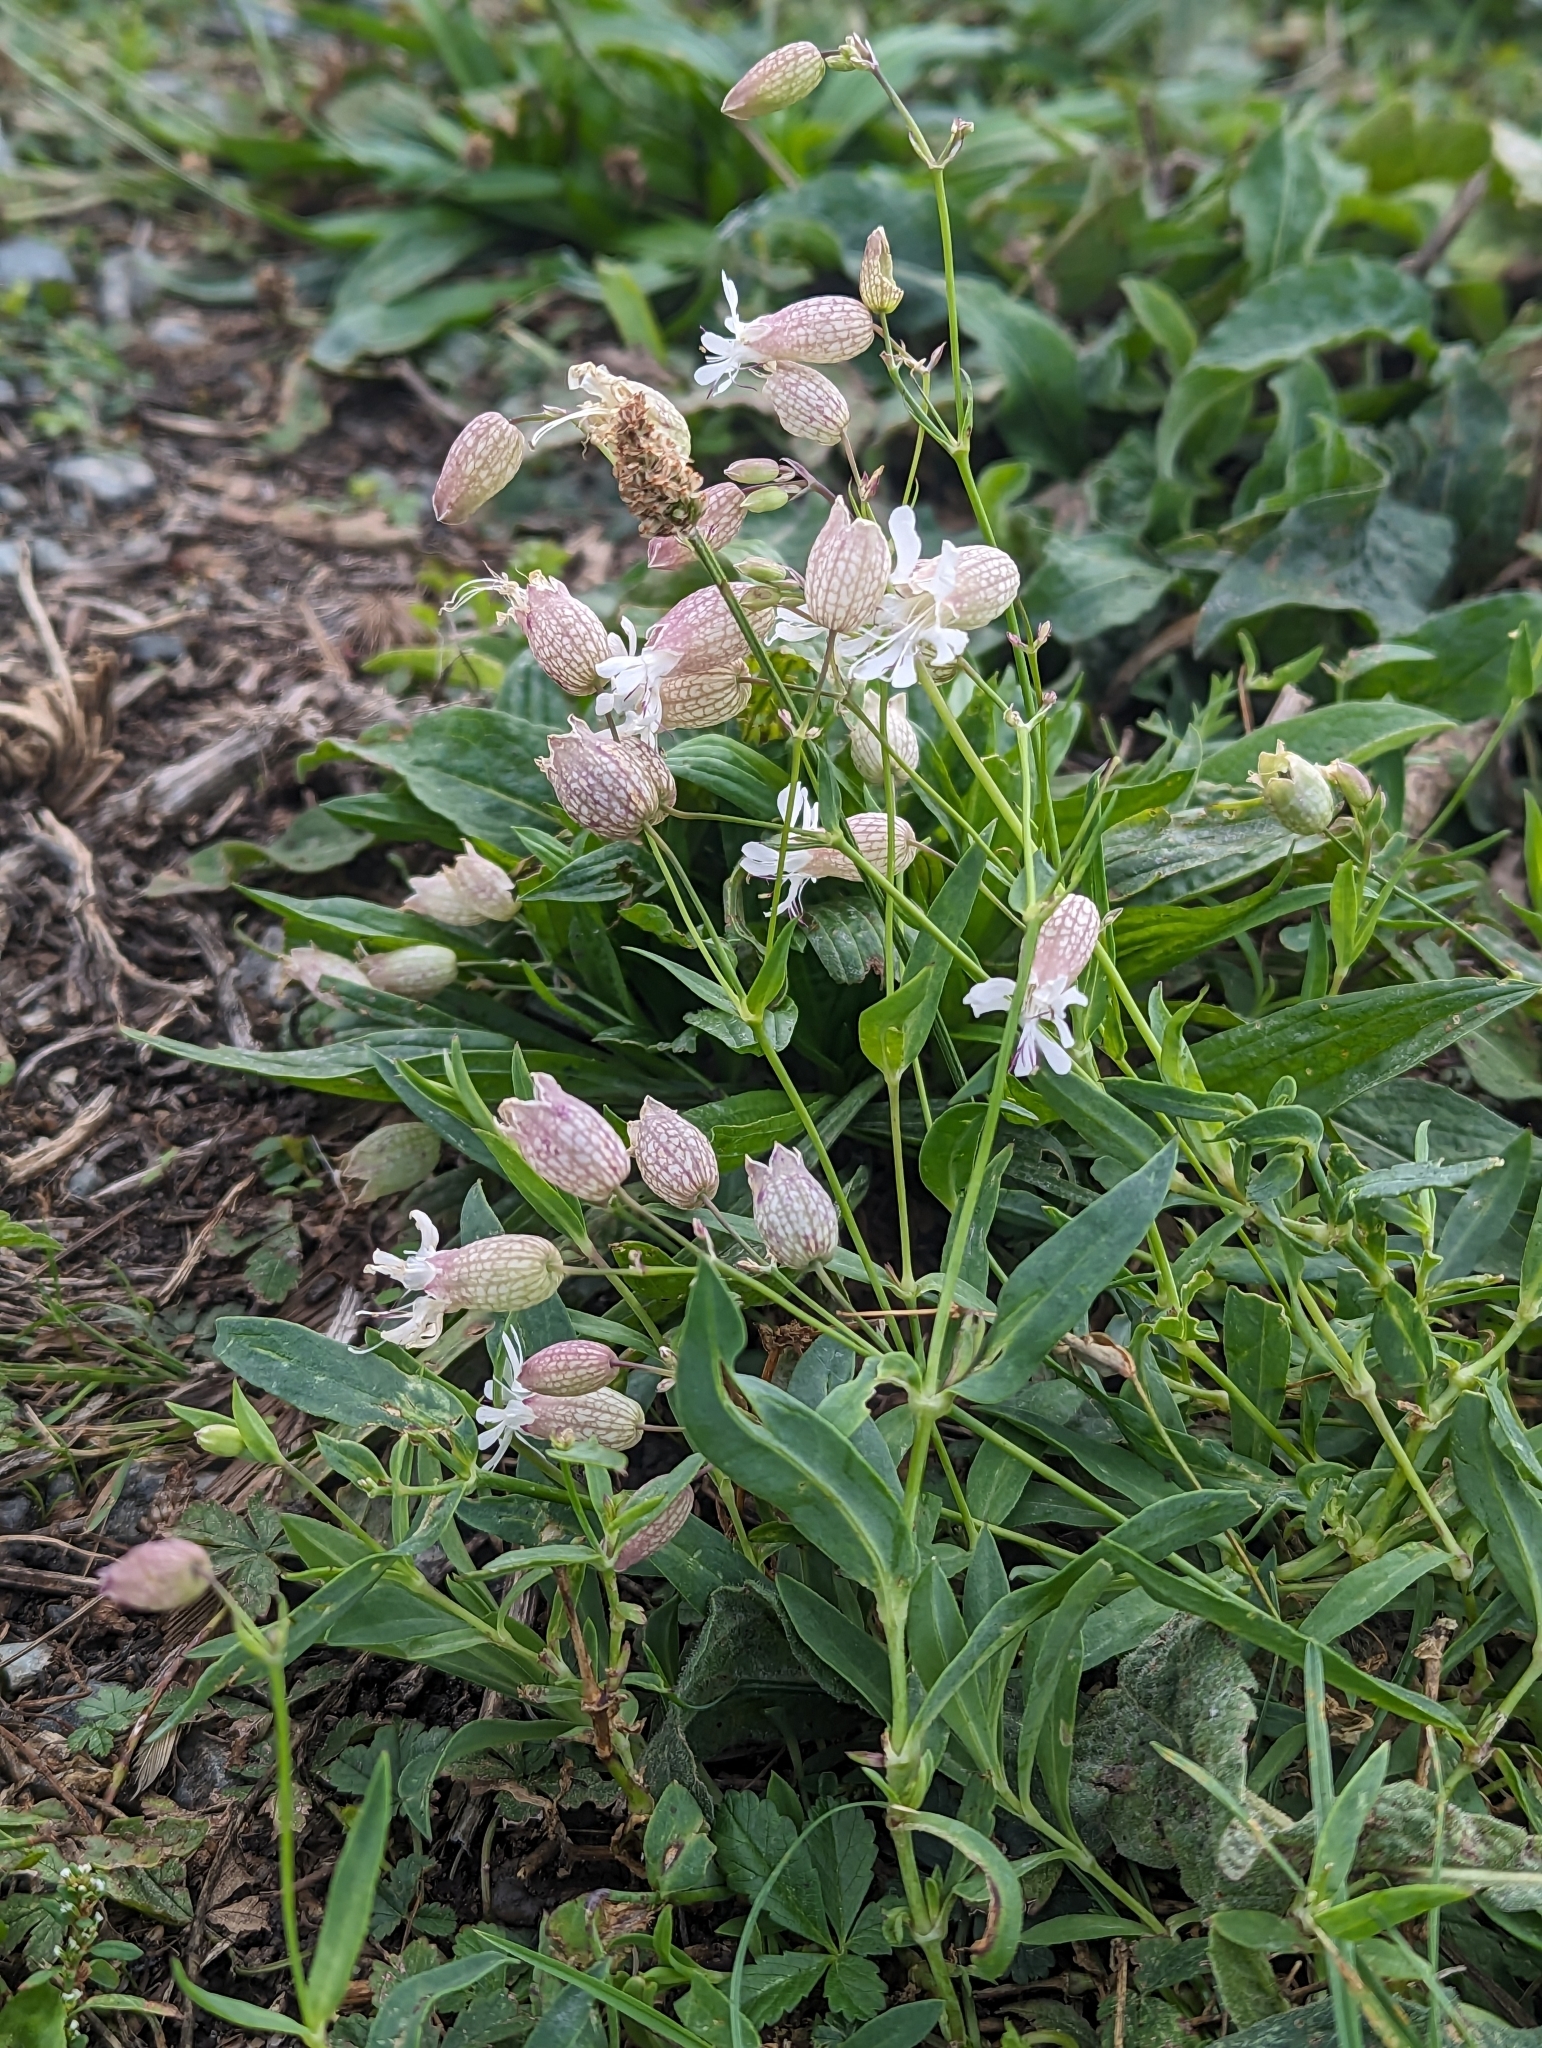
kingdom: Plantae
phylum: Tracheophyta
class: Magnoliopsida
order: Caryophyllales
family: Caryophyllaceae
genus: Silene
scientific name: Silene vulgaris
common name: Bladder campion
